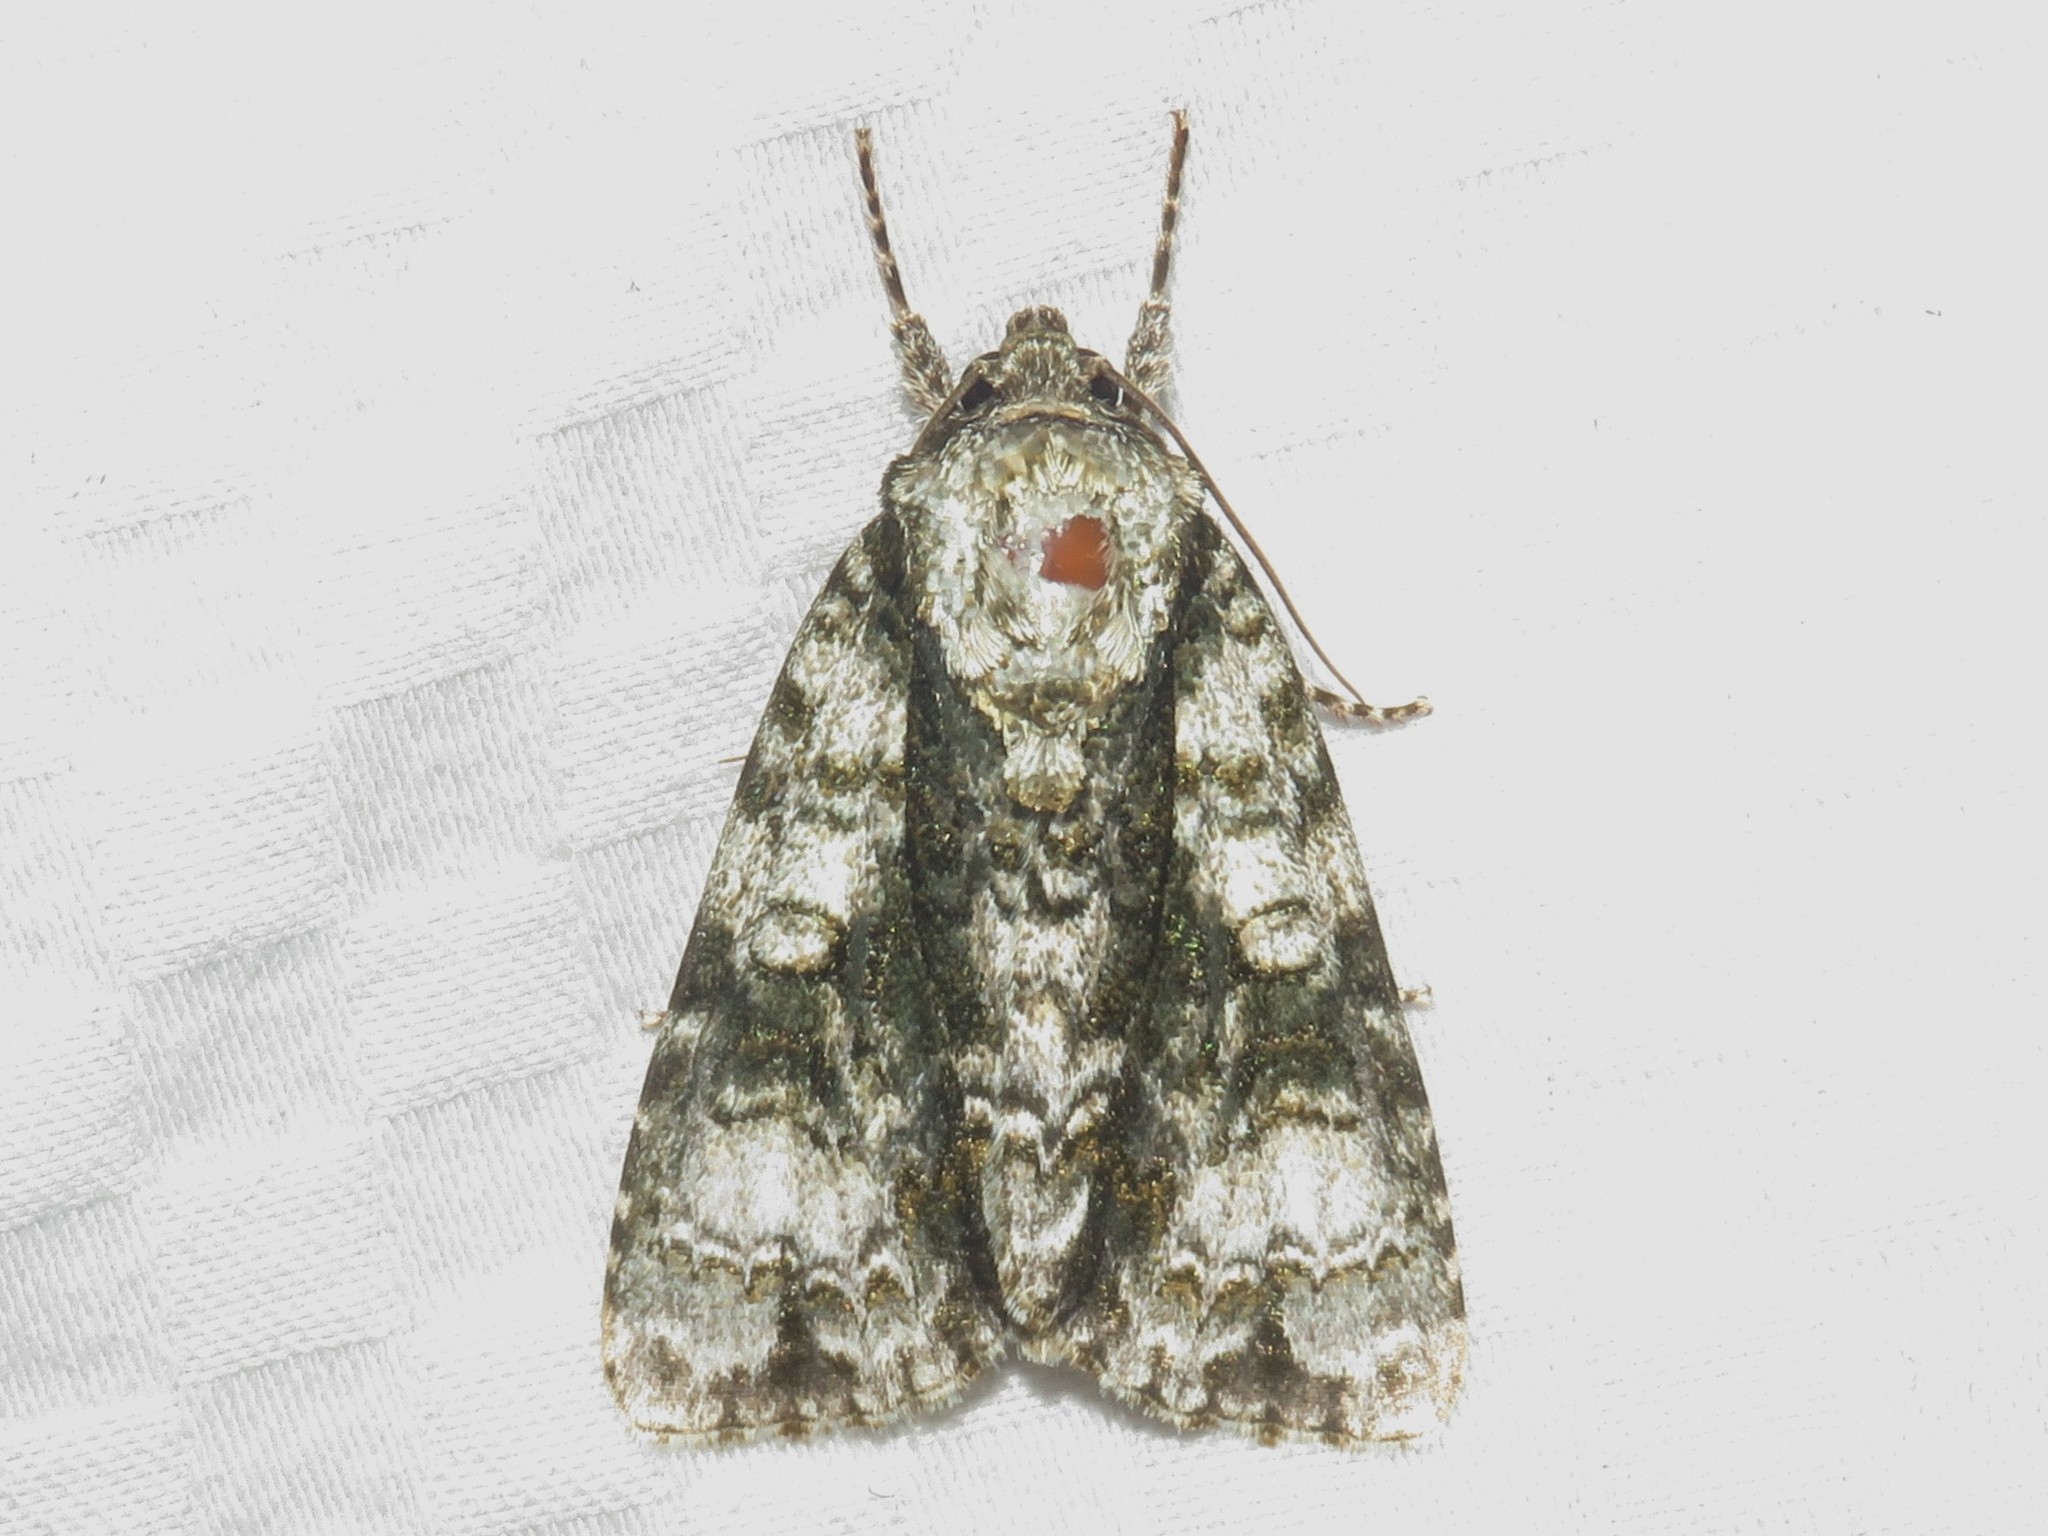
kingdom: Animalia
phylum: Arthropoda
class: Insecta
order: Lepidoptera
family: Noctuidae
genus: Acronicta
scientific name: Acronicta superans
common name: Splendid dagger
